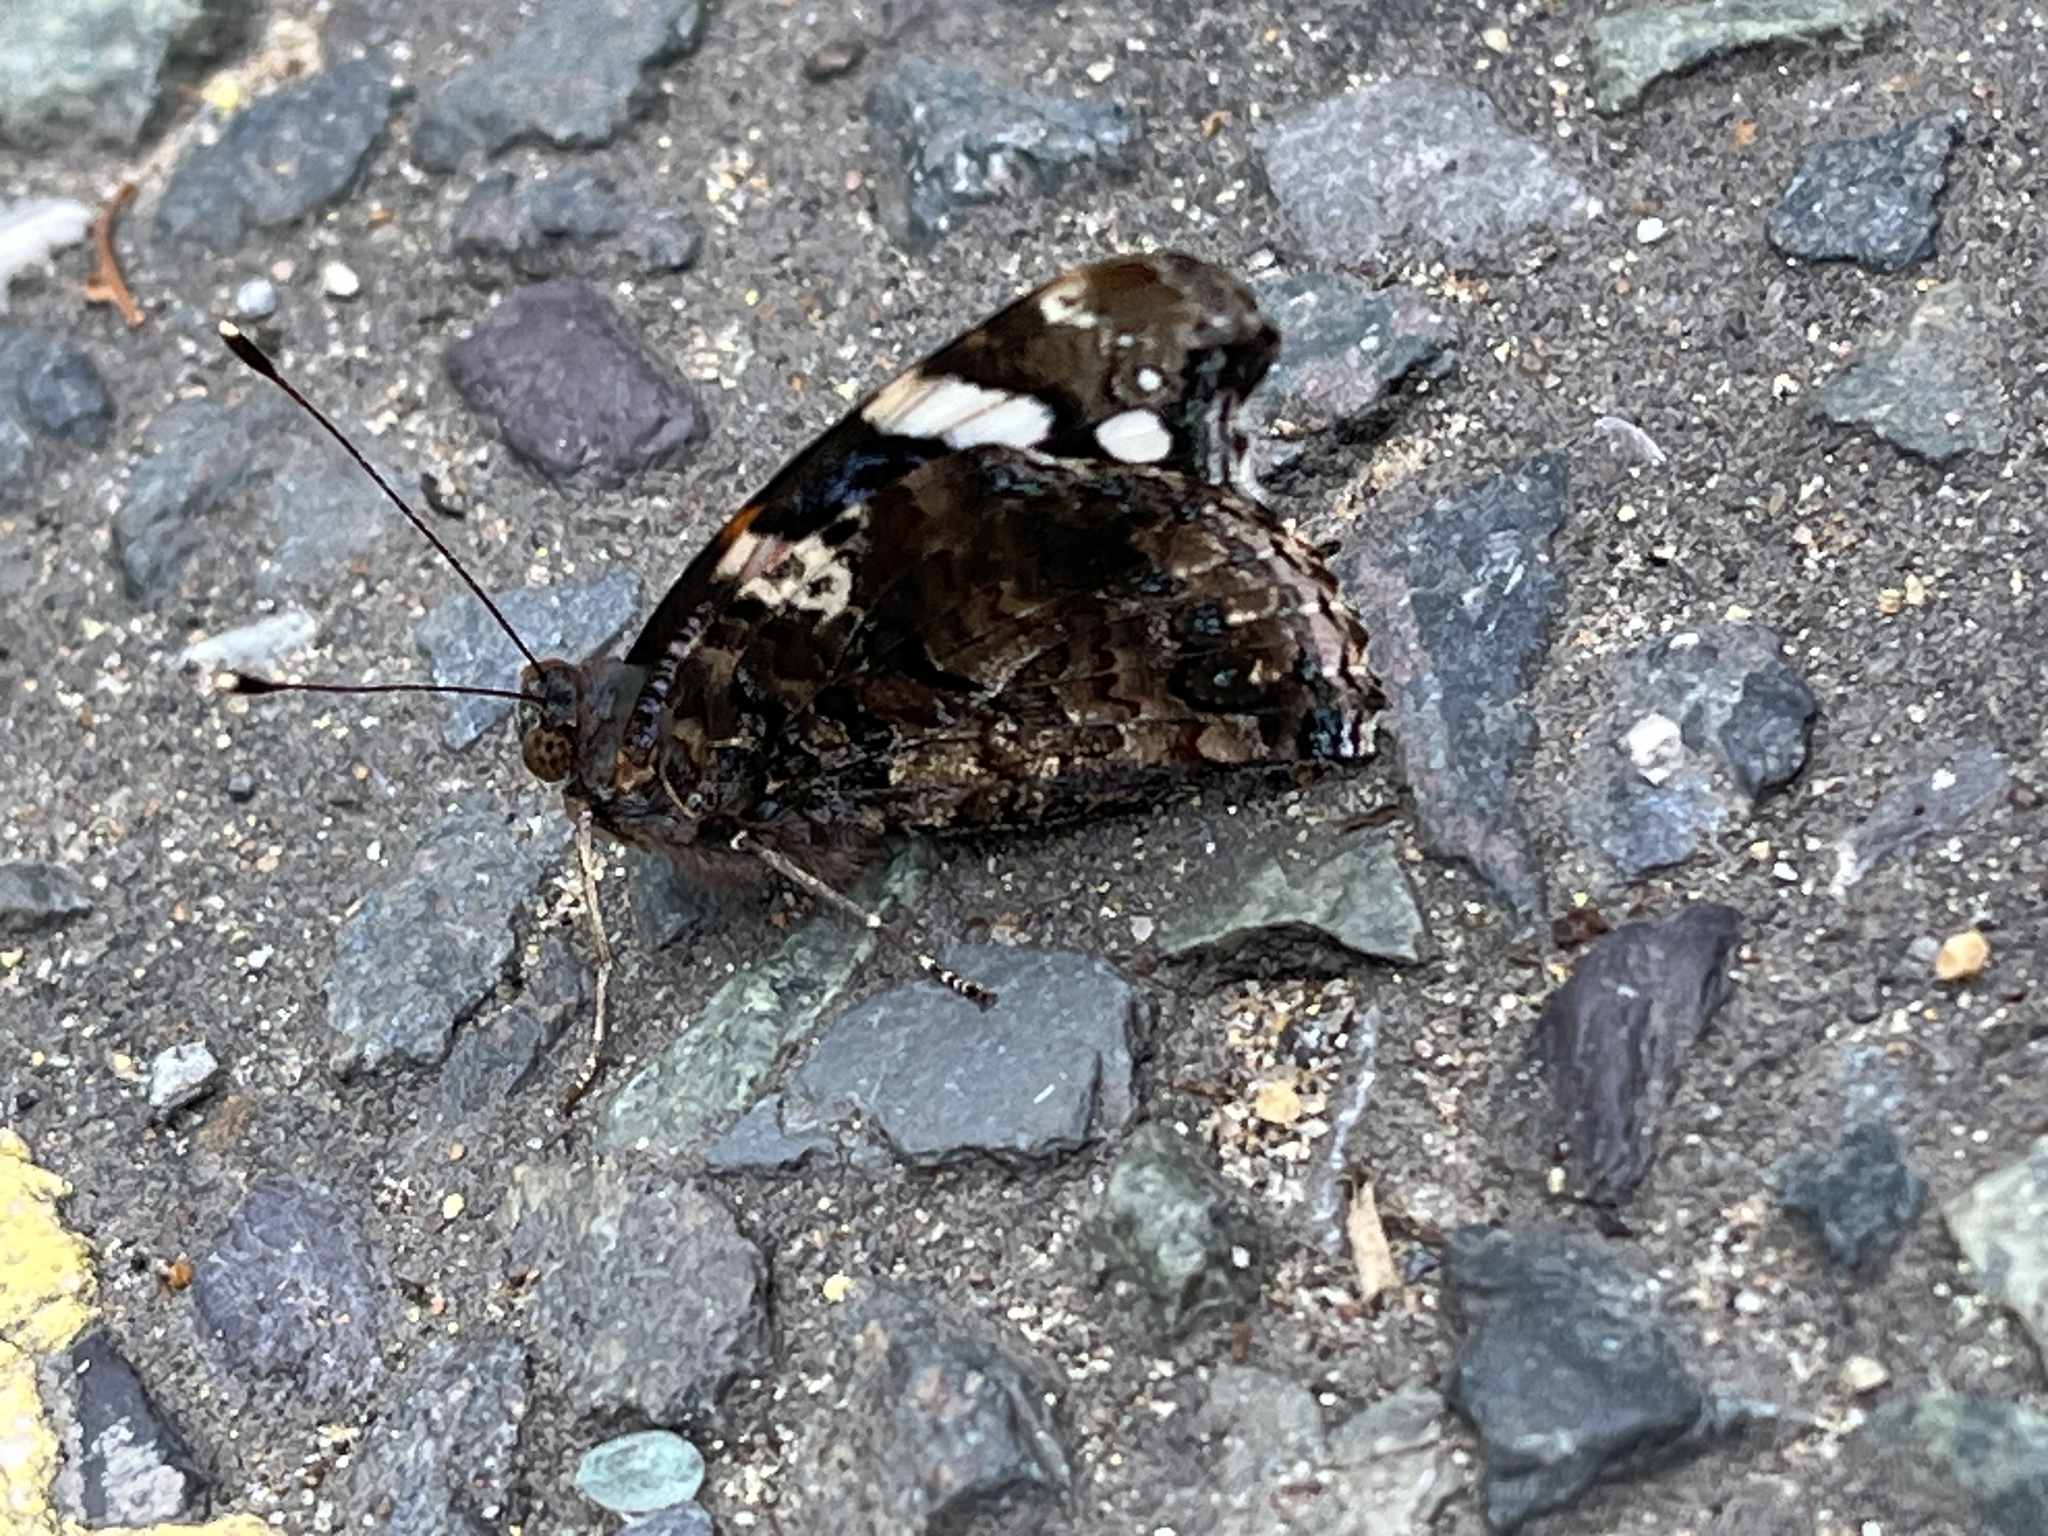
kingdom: Animalia
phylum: Arthropoda
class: Insecta
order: Lepidoptera
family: Nymphalidae
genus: Vanessa
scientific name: Vanessa atalanta
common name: Red admiral
